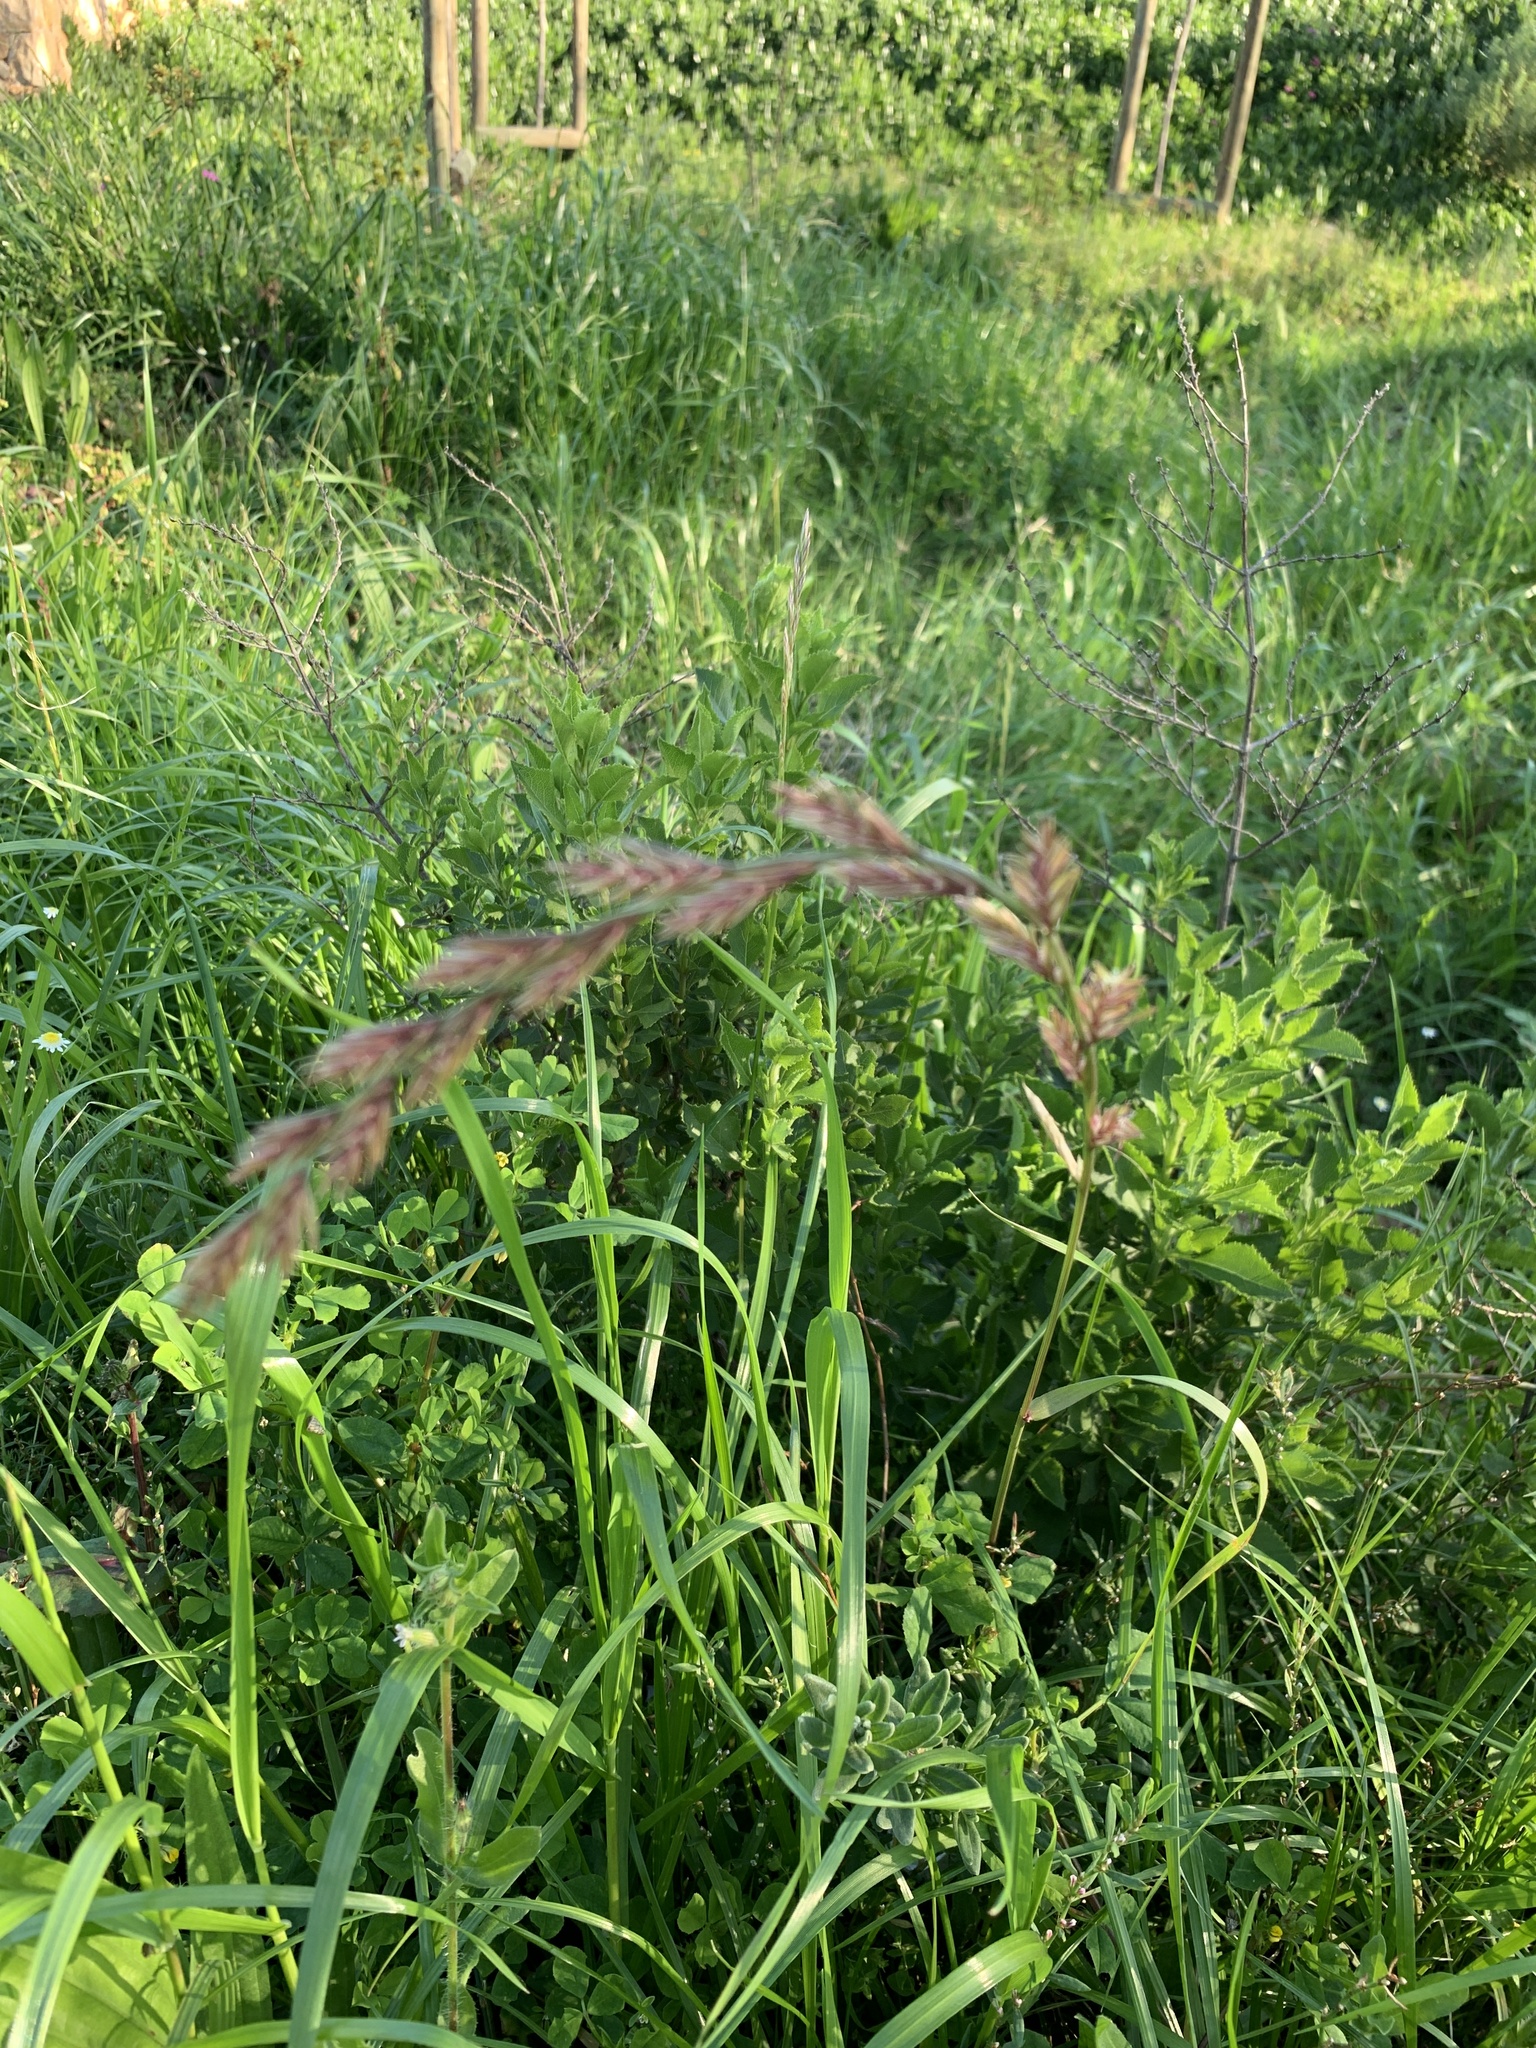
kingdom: Plantae
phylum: Tracheophyta
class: Liliopsida
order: Poales
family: Poaceae
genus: Lolium
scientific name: Lolium perenne
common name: Perennial ryegrass
